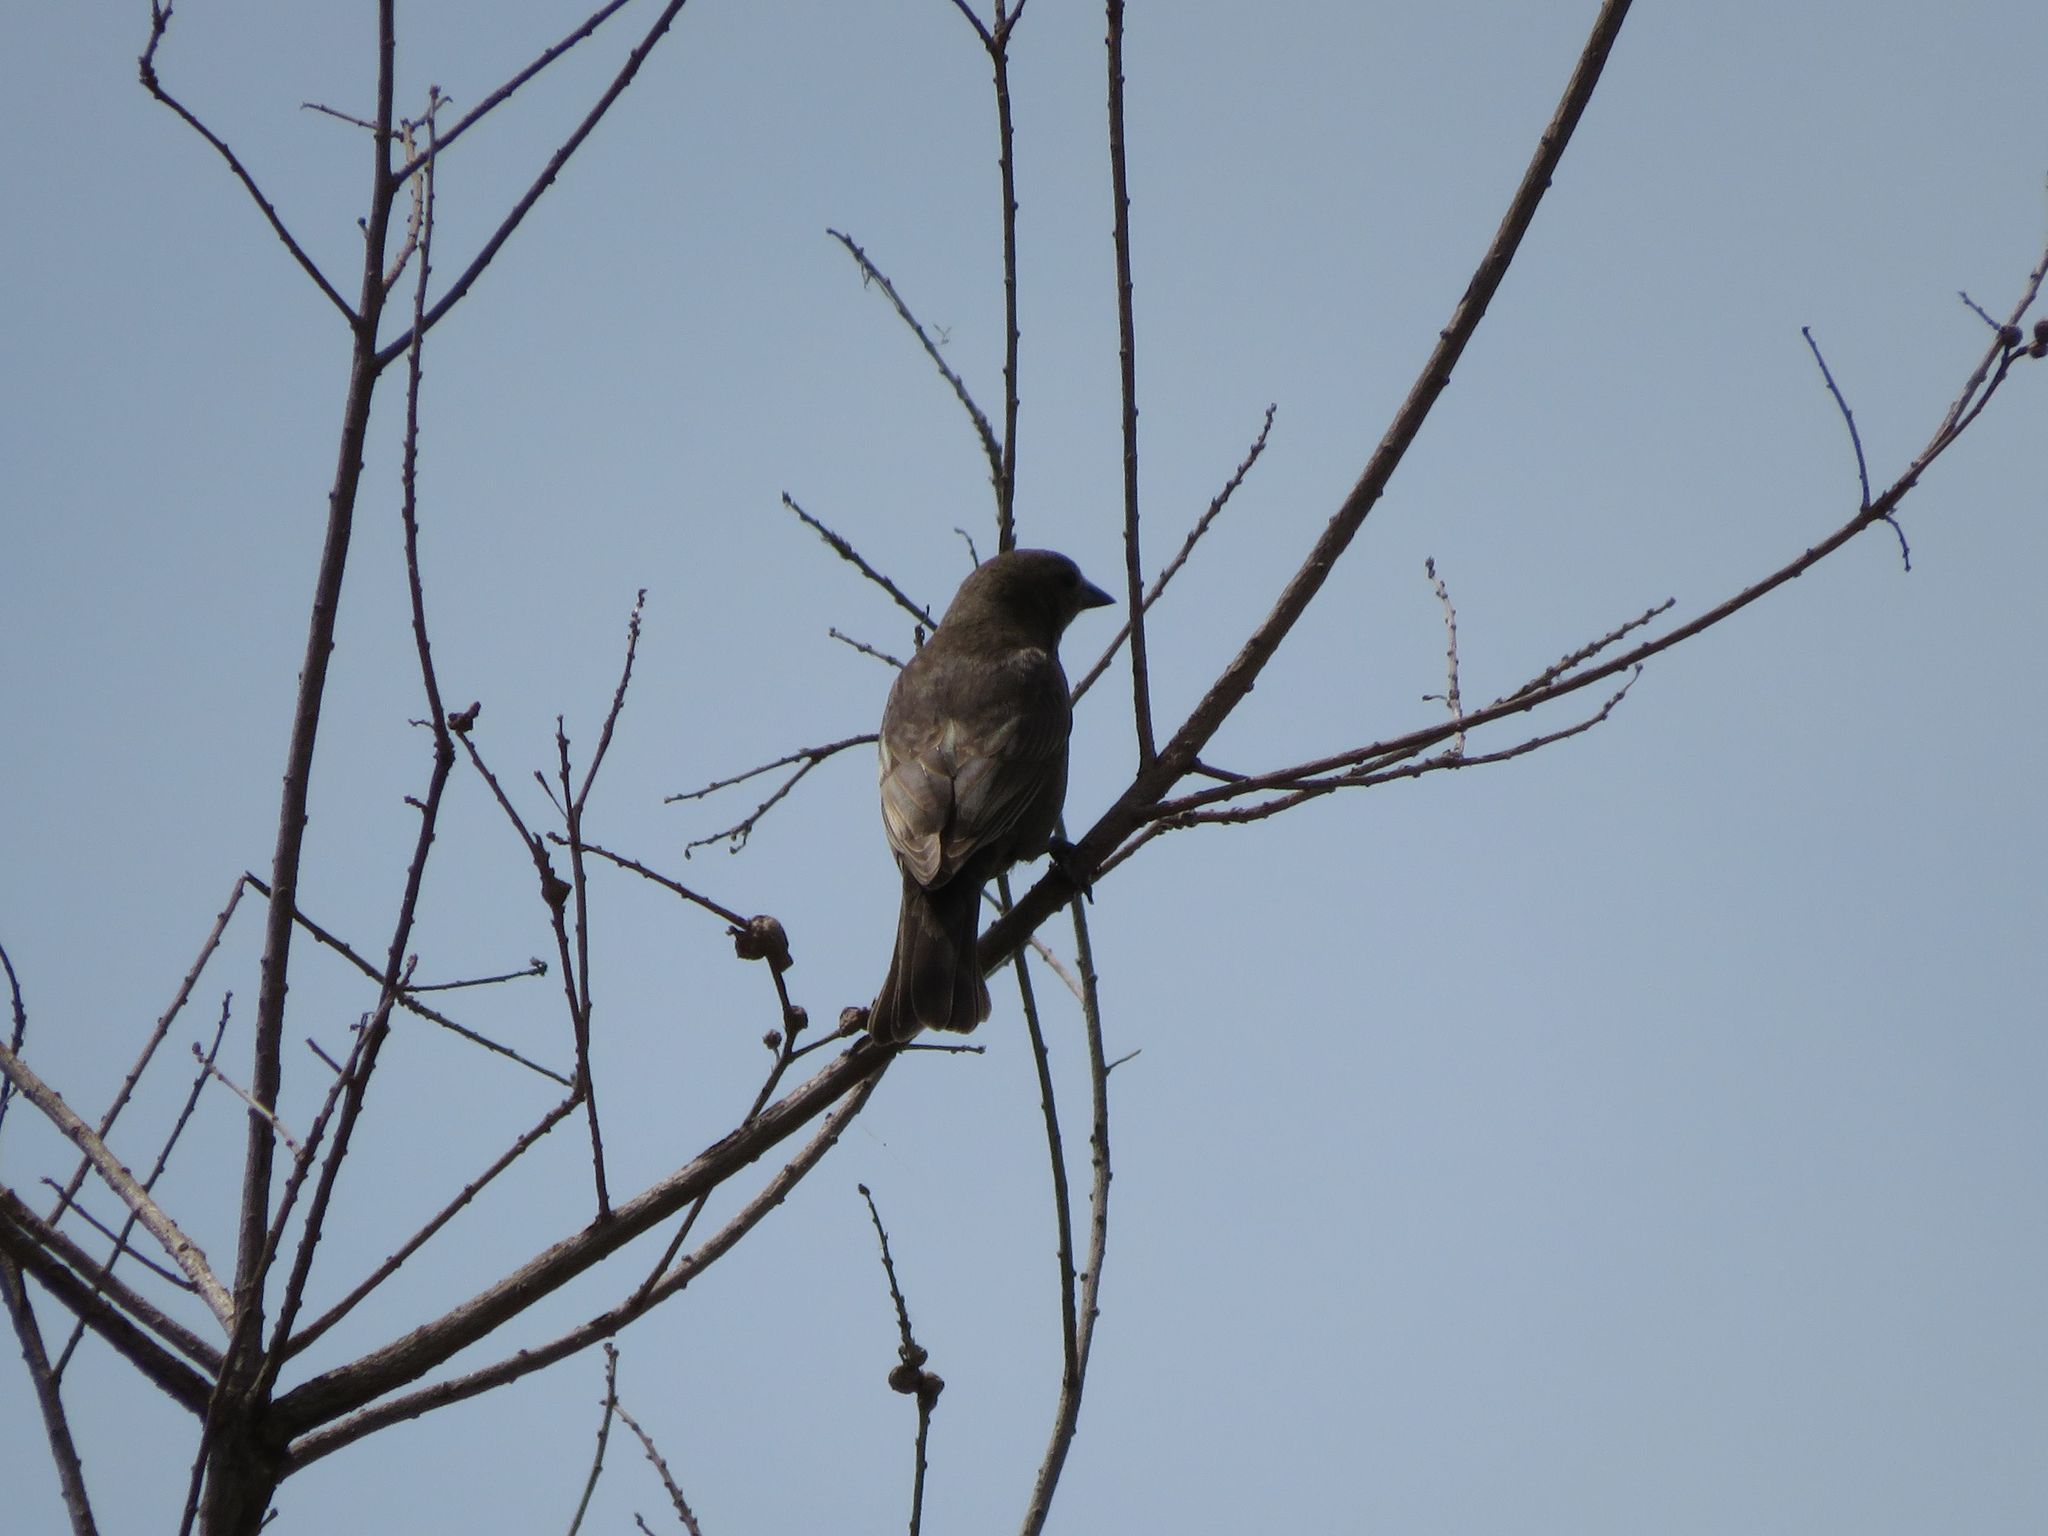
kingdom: Animalia
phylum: Chordata
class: Aves
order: Passeriformes
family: Icteridae
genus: Molothrus
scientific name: Molothrus bonariensis
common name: Shiny cowbird
